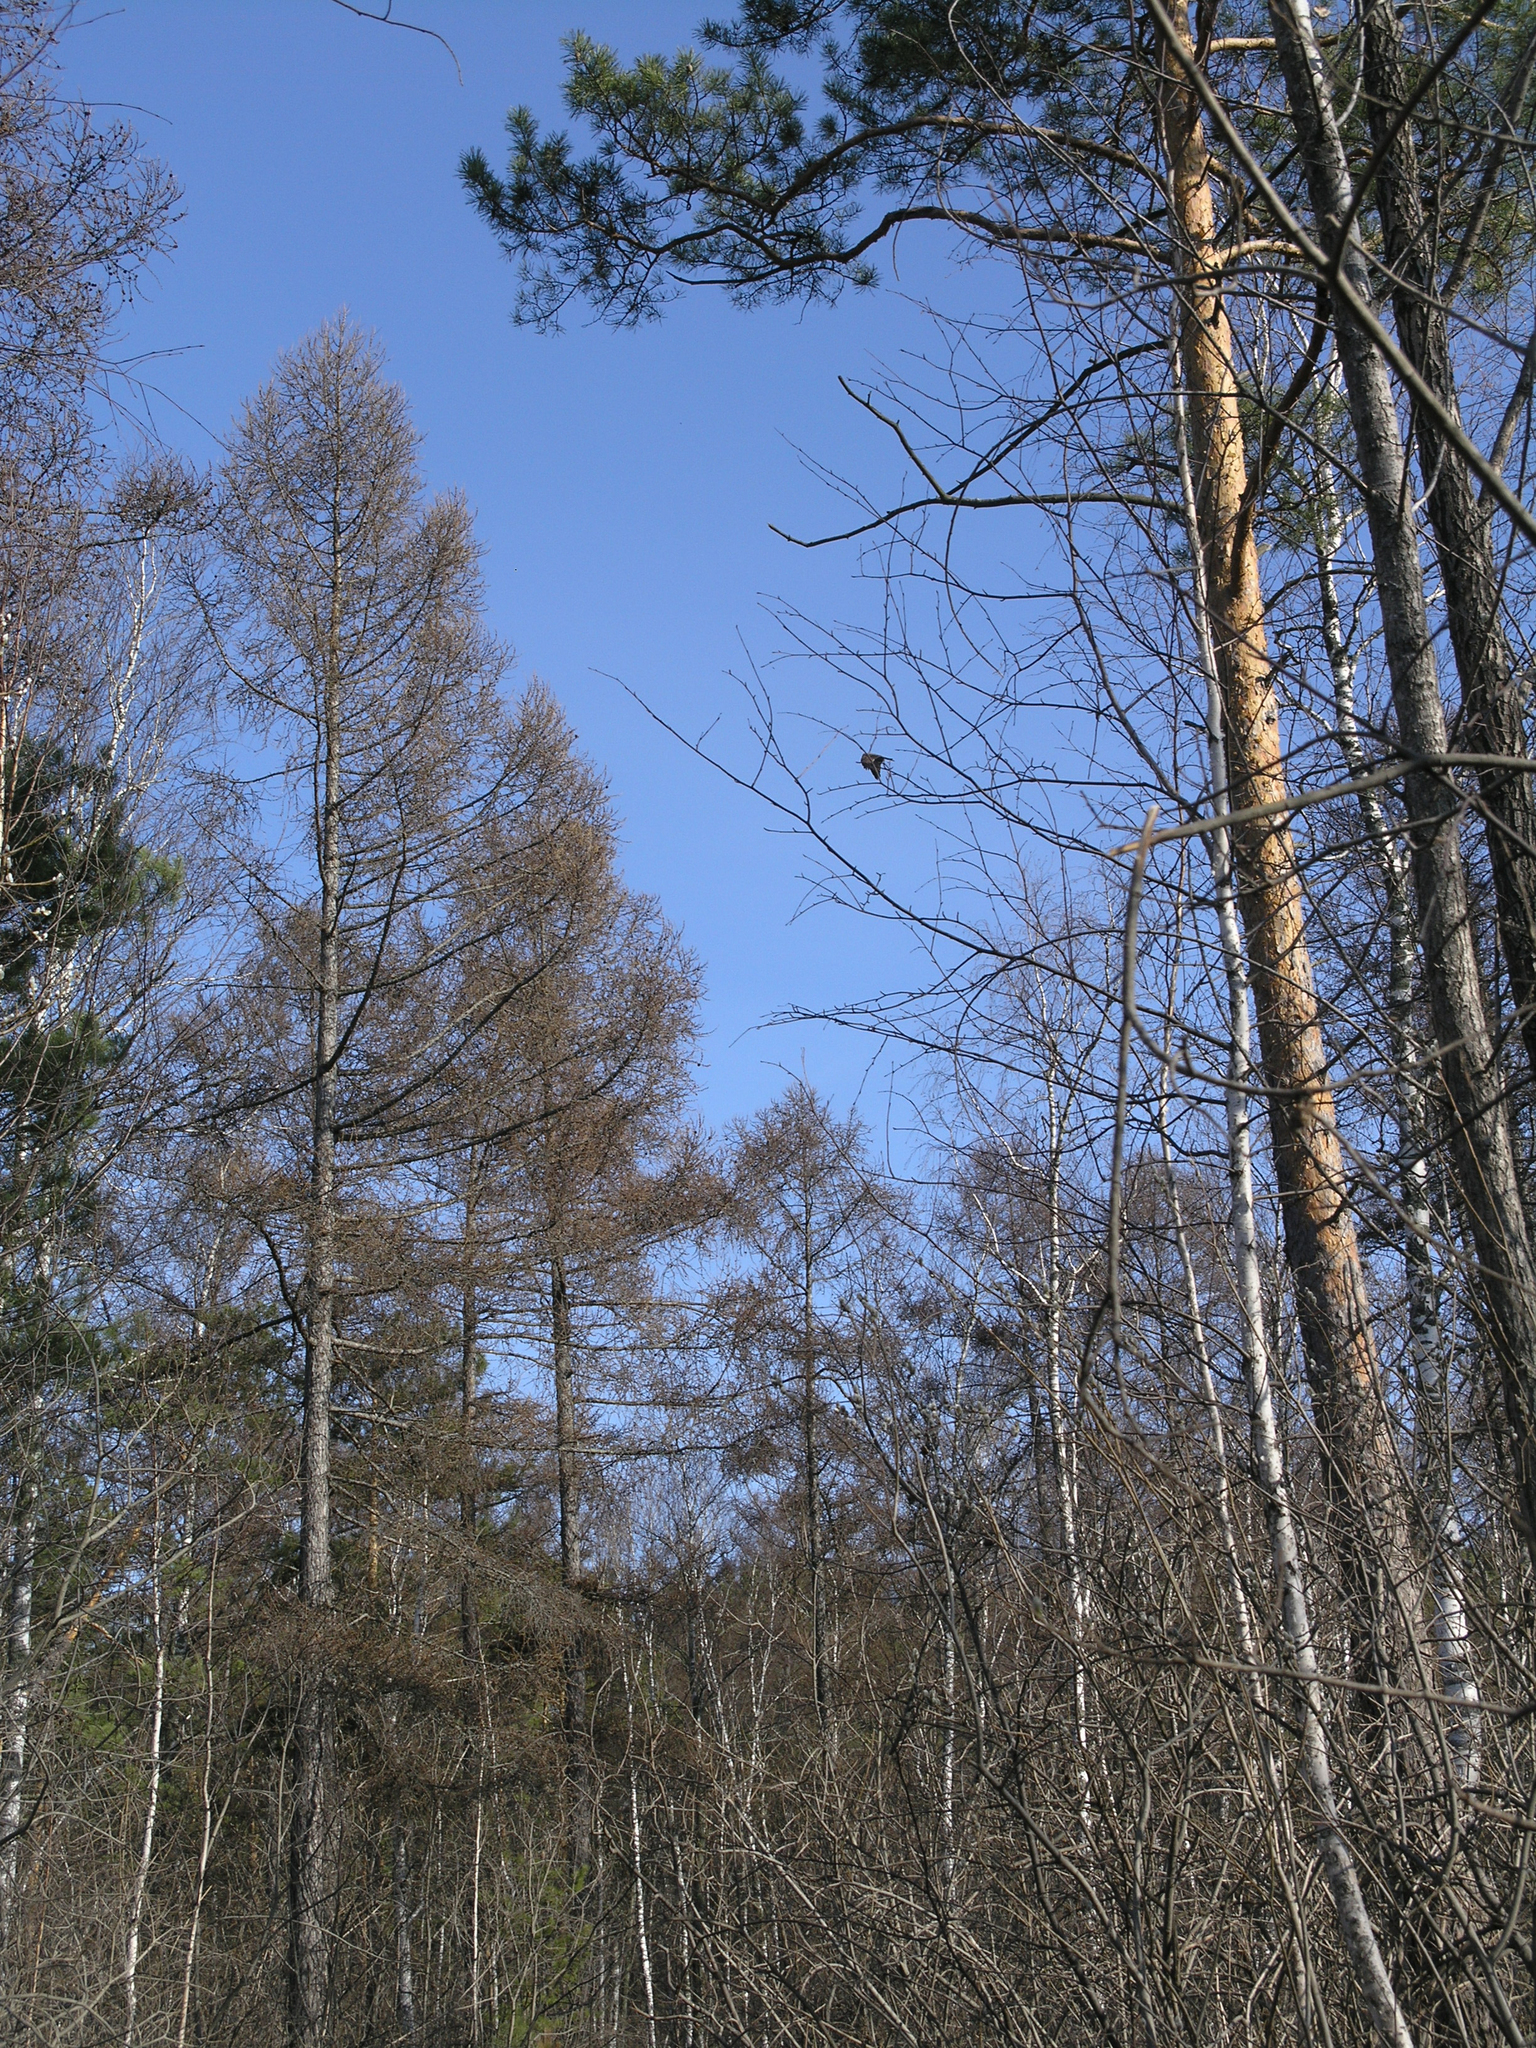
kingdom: Plantae
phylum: Tracheophyta
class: Pinopsida
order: Pinales
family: Pinaceae
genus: Larix
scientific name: Larix sibirica
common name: Siberian larch
